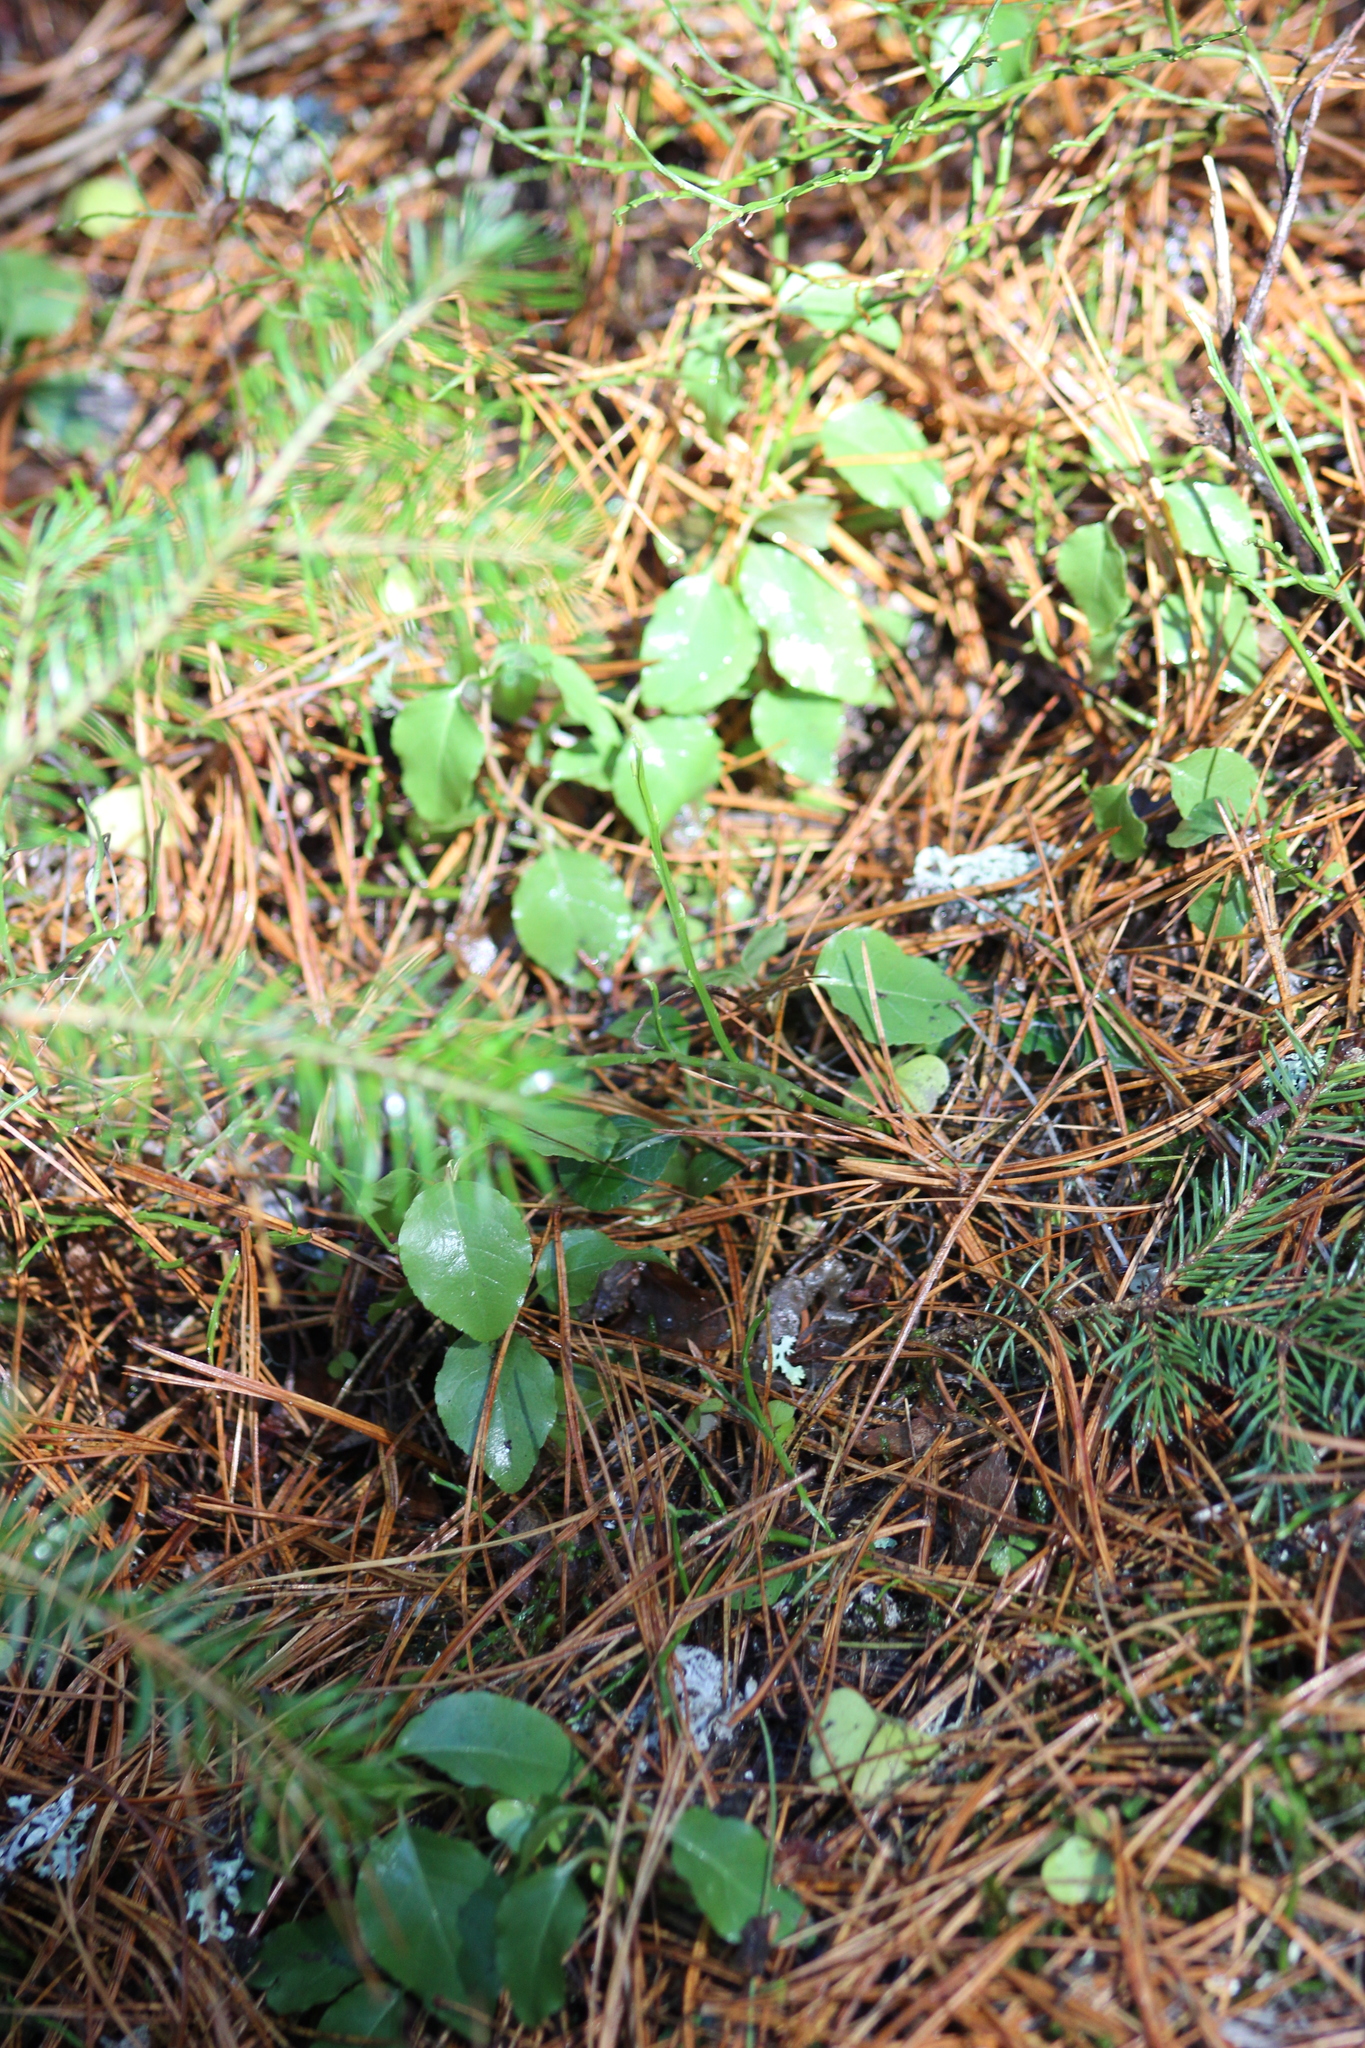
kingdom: Plantae
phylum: Tracheophyta
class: Magnoliopsida
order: Ericales
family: Ericaceae
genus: Orthilia
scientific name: Orthilia secunda
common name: One-sided orthilia
